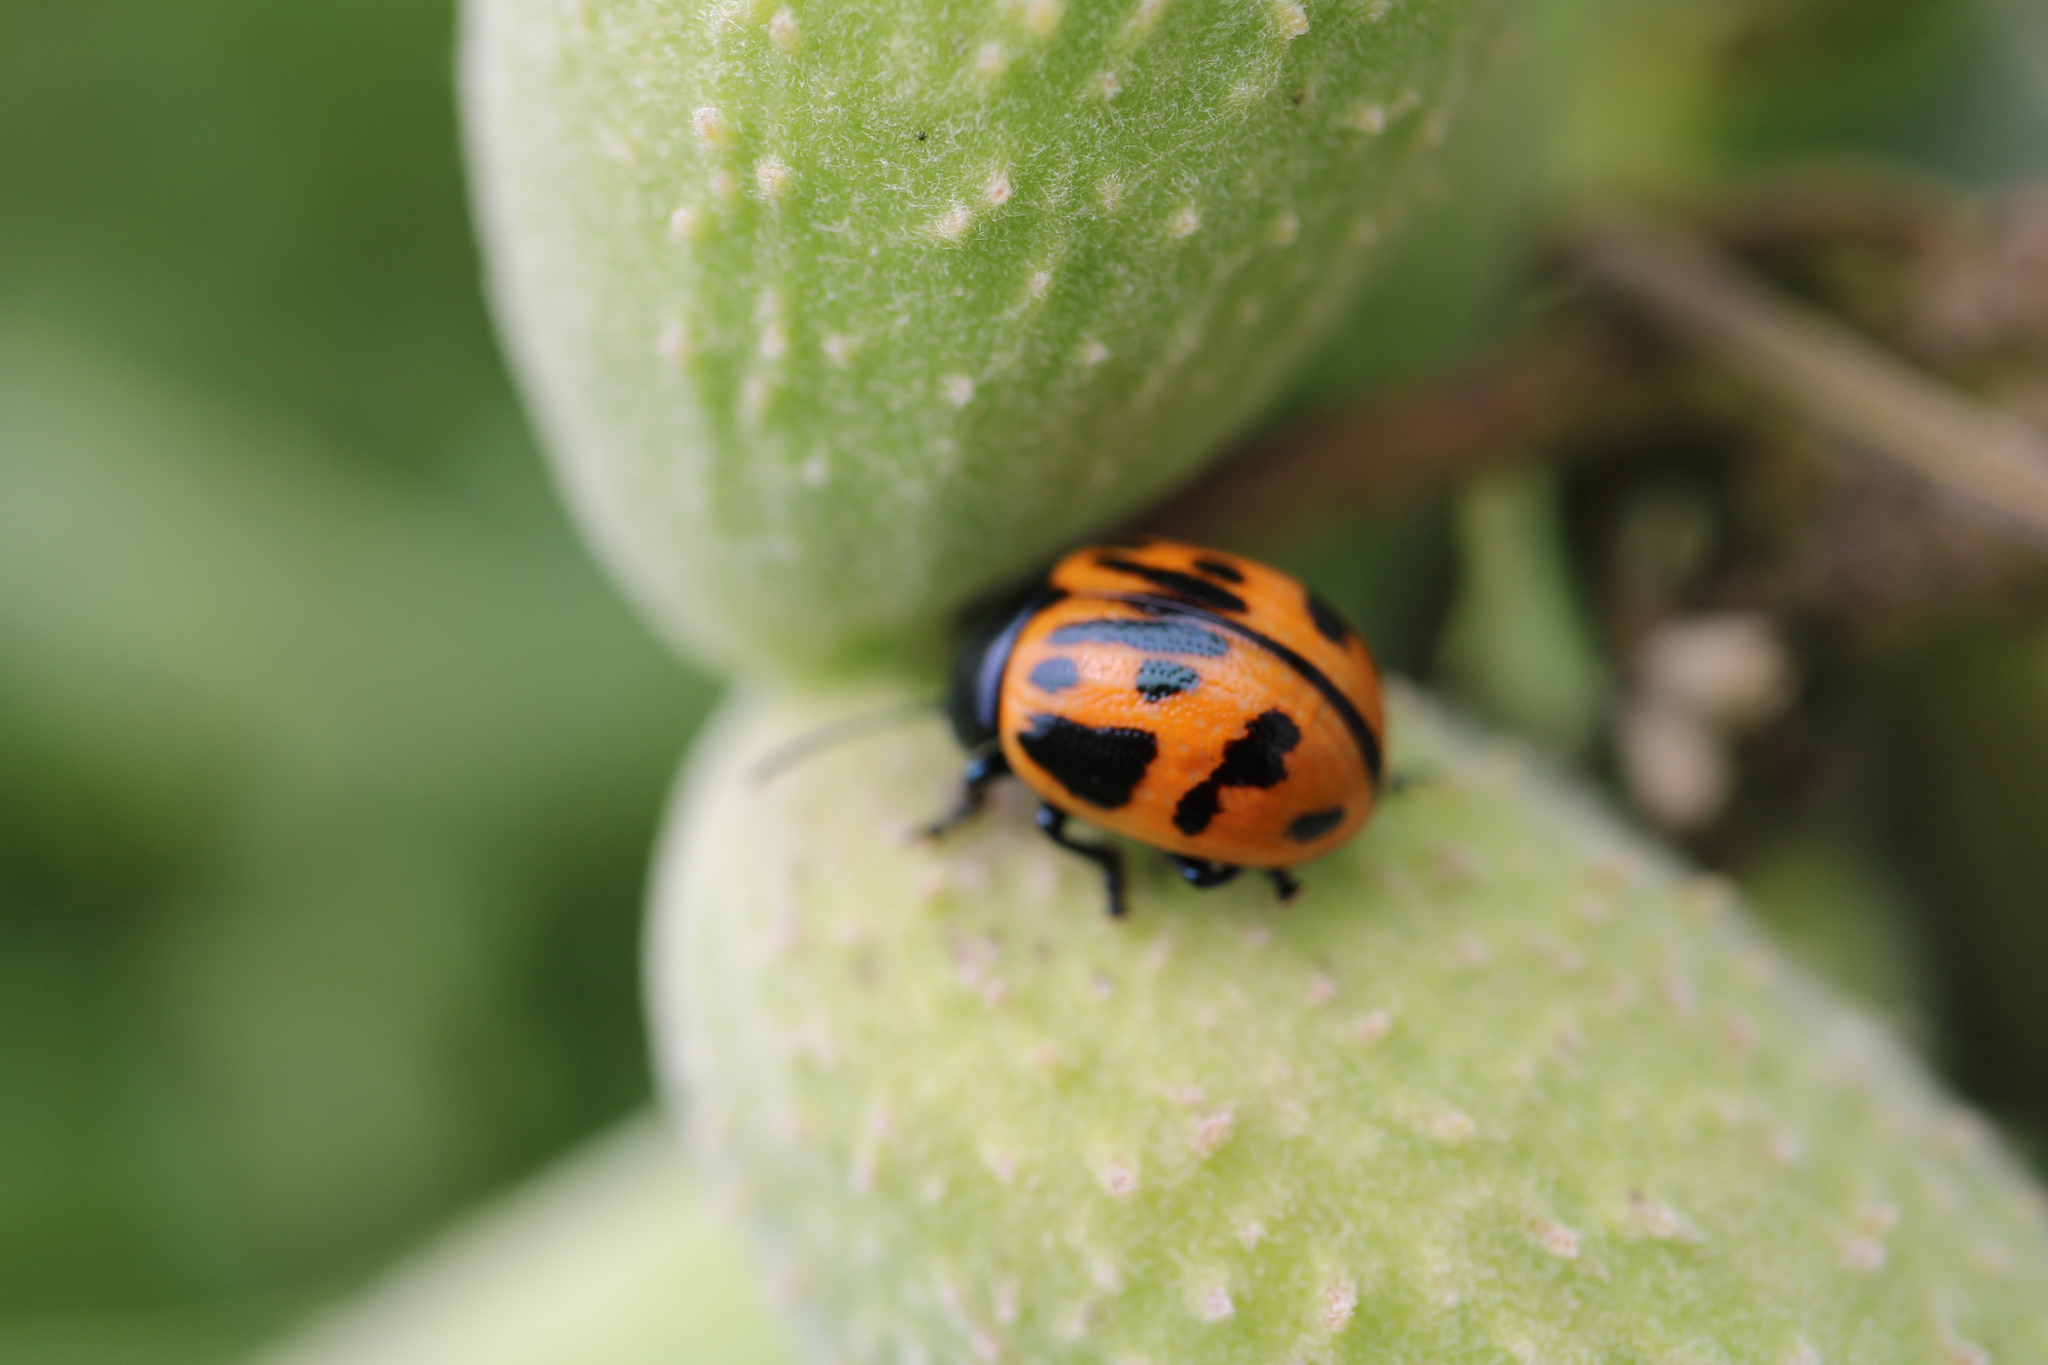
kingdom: Animalia
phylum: Arthropoda
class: Insecta
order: Coleoptera
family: Chrysomelidae
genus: Labidomera
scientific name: Labidomera clivicollis
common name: Swamp milkweed leaf beetle
